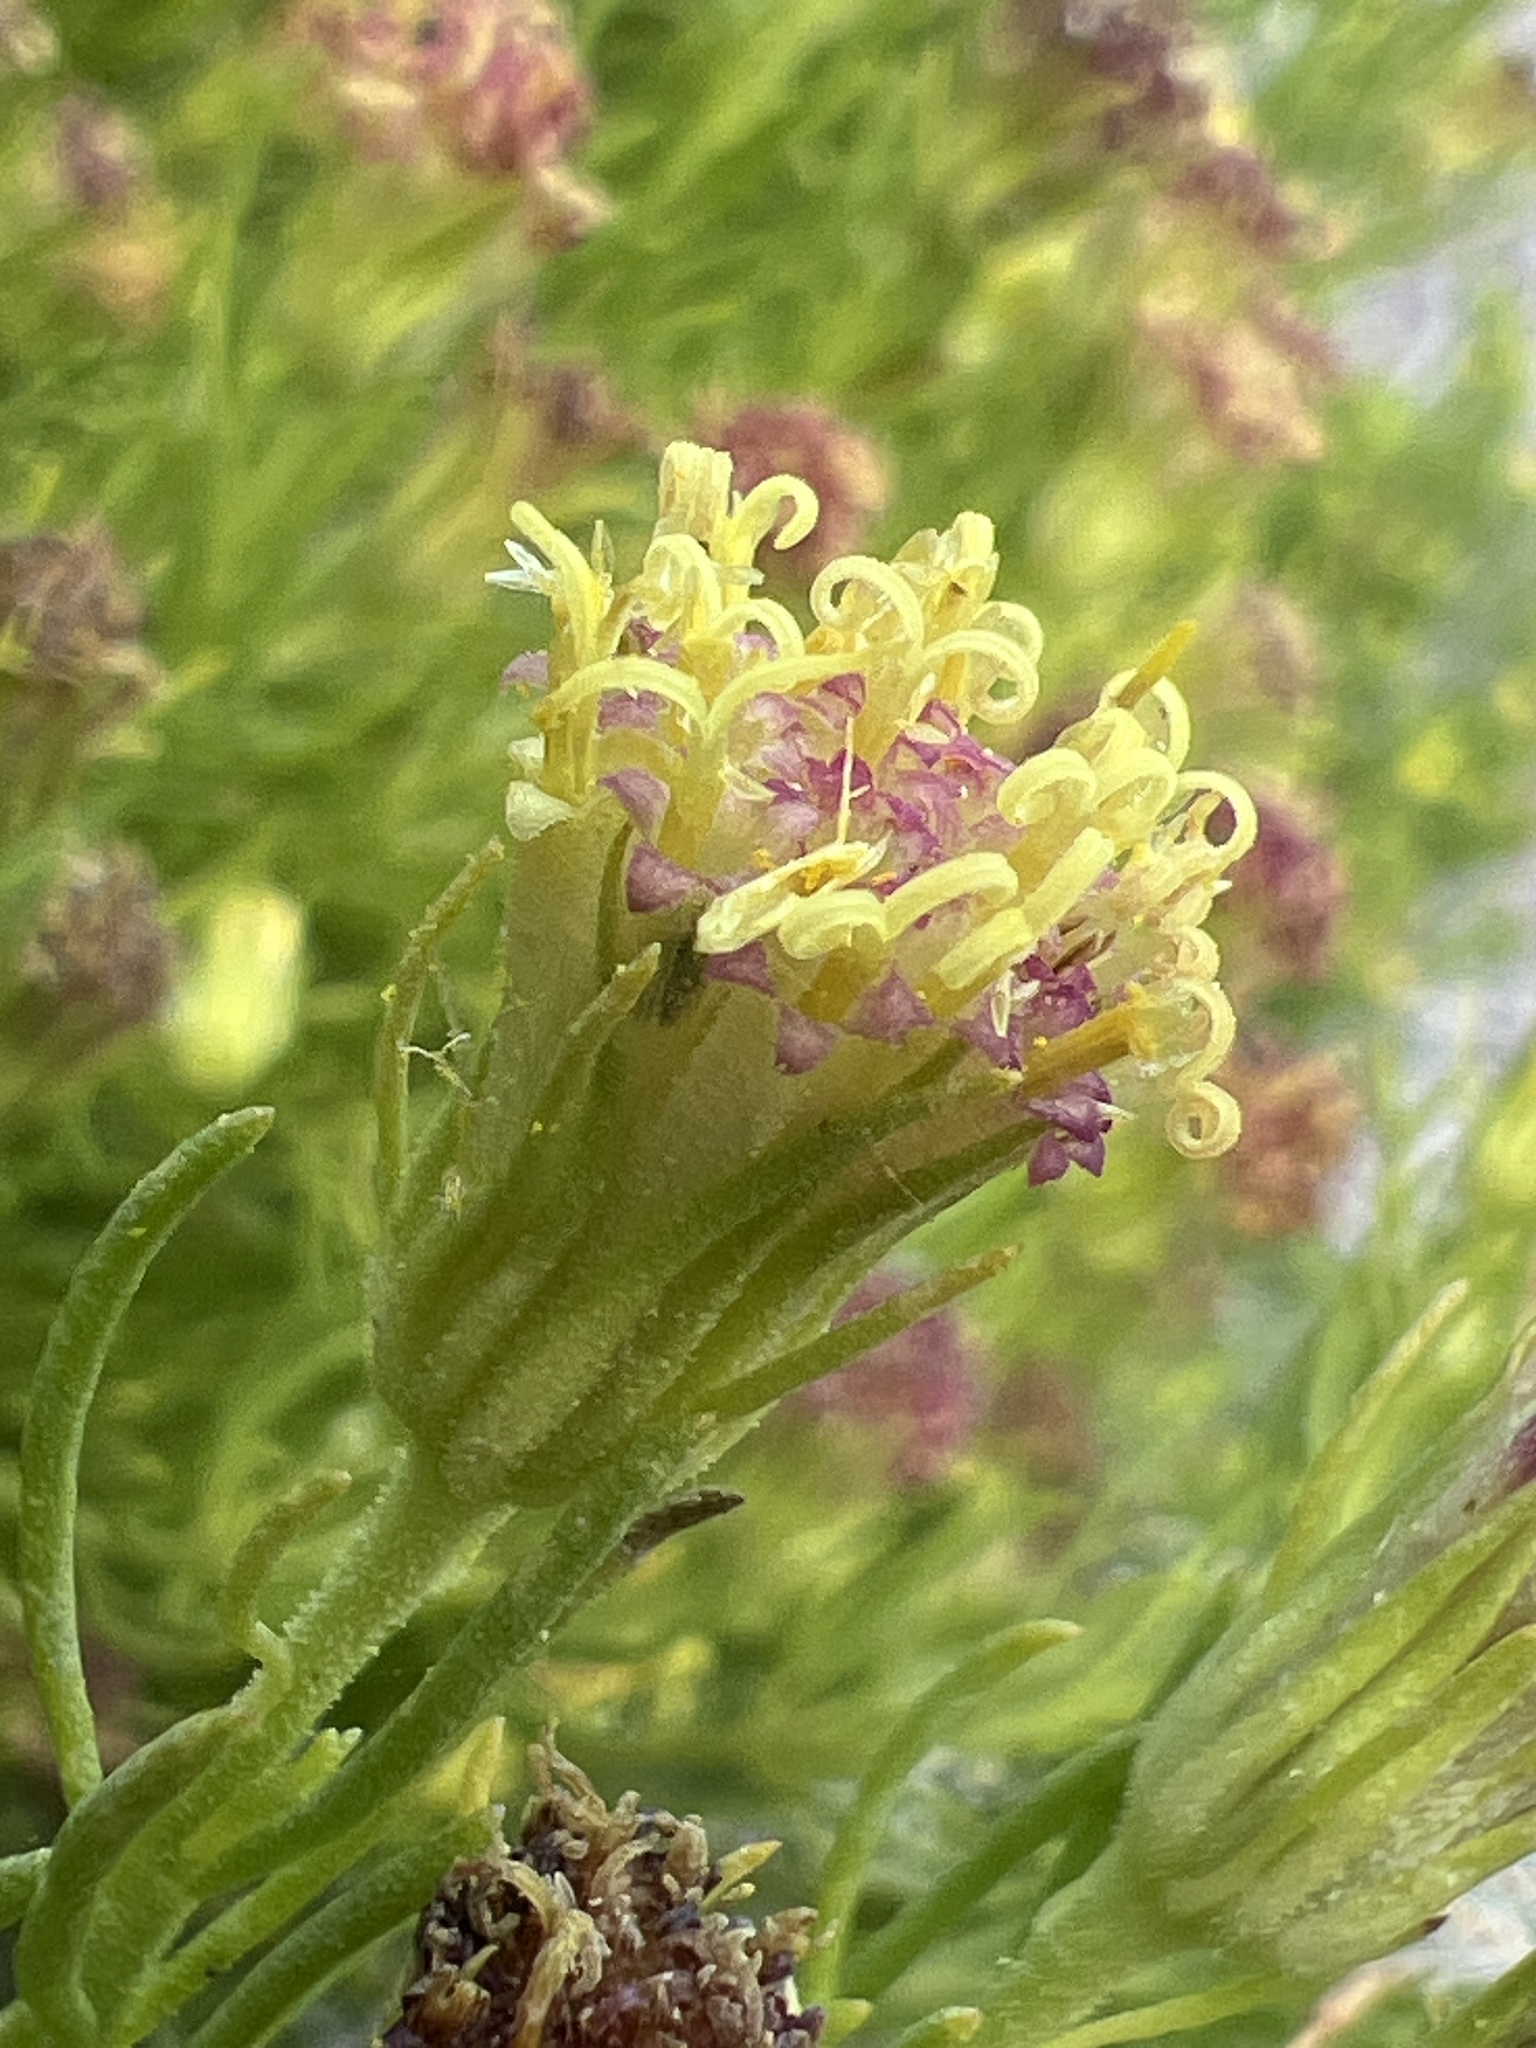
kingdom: Plantae
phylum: Tracheophyta
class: Magnoliopsida
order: Asterales
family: Asteraceae
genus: Peucephyllum
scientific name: Peucephyllum schottii
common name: Pygmy-cedar
